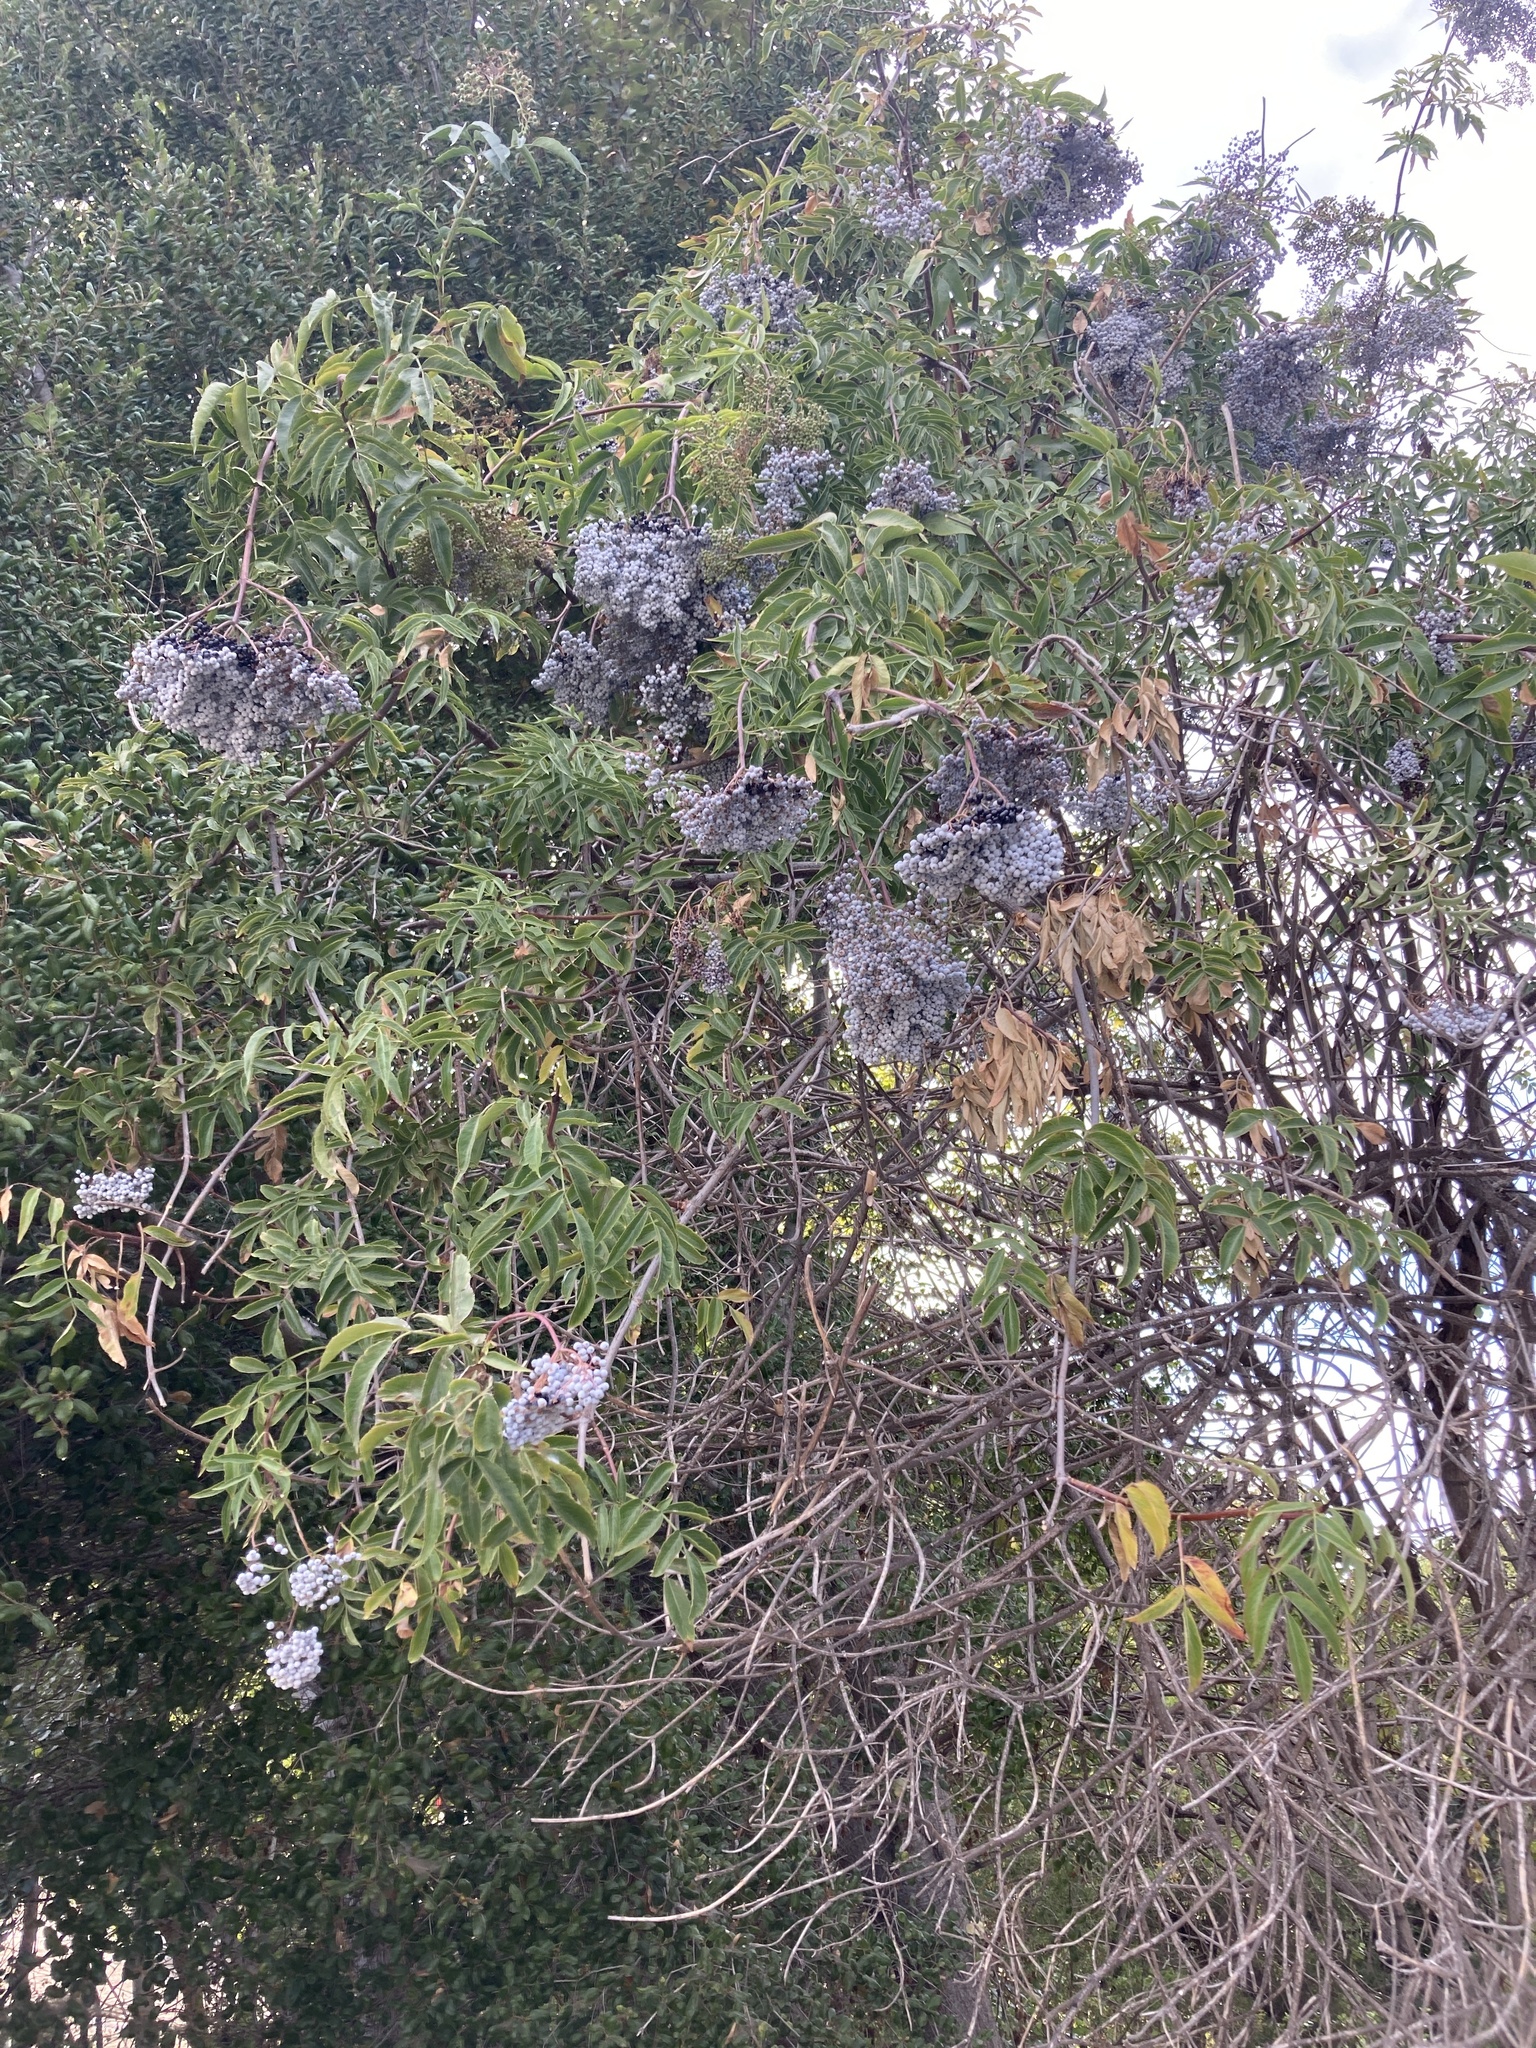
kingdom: Plantae
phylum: Tracheophyta
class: Magnoliopsida
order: Dipsacales
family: Viburnaceae
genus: Sambucus
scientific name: Sambucus cerulea
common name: Blue elder
